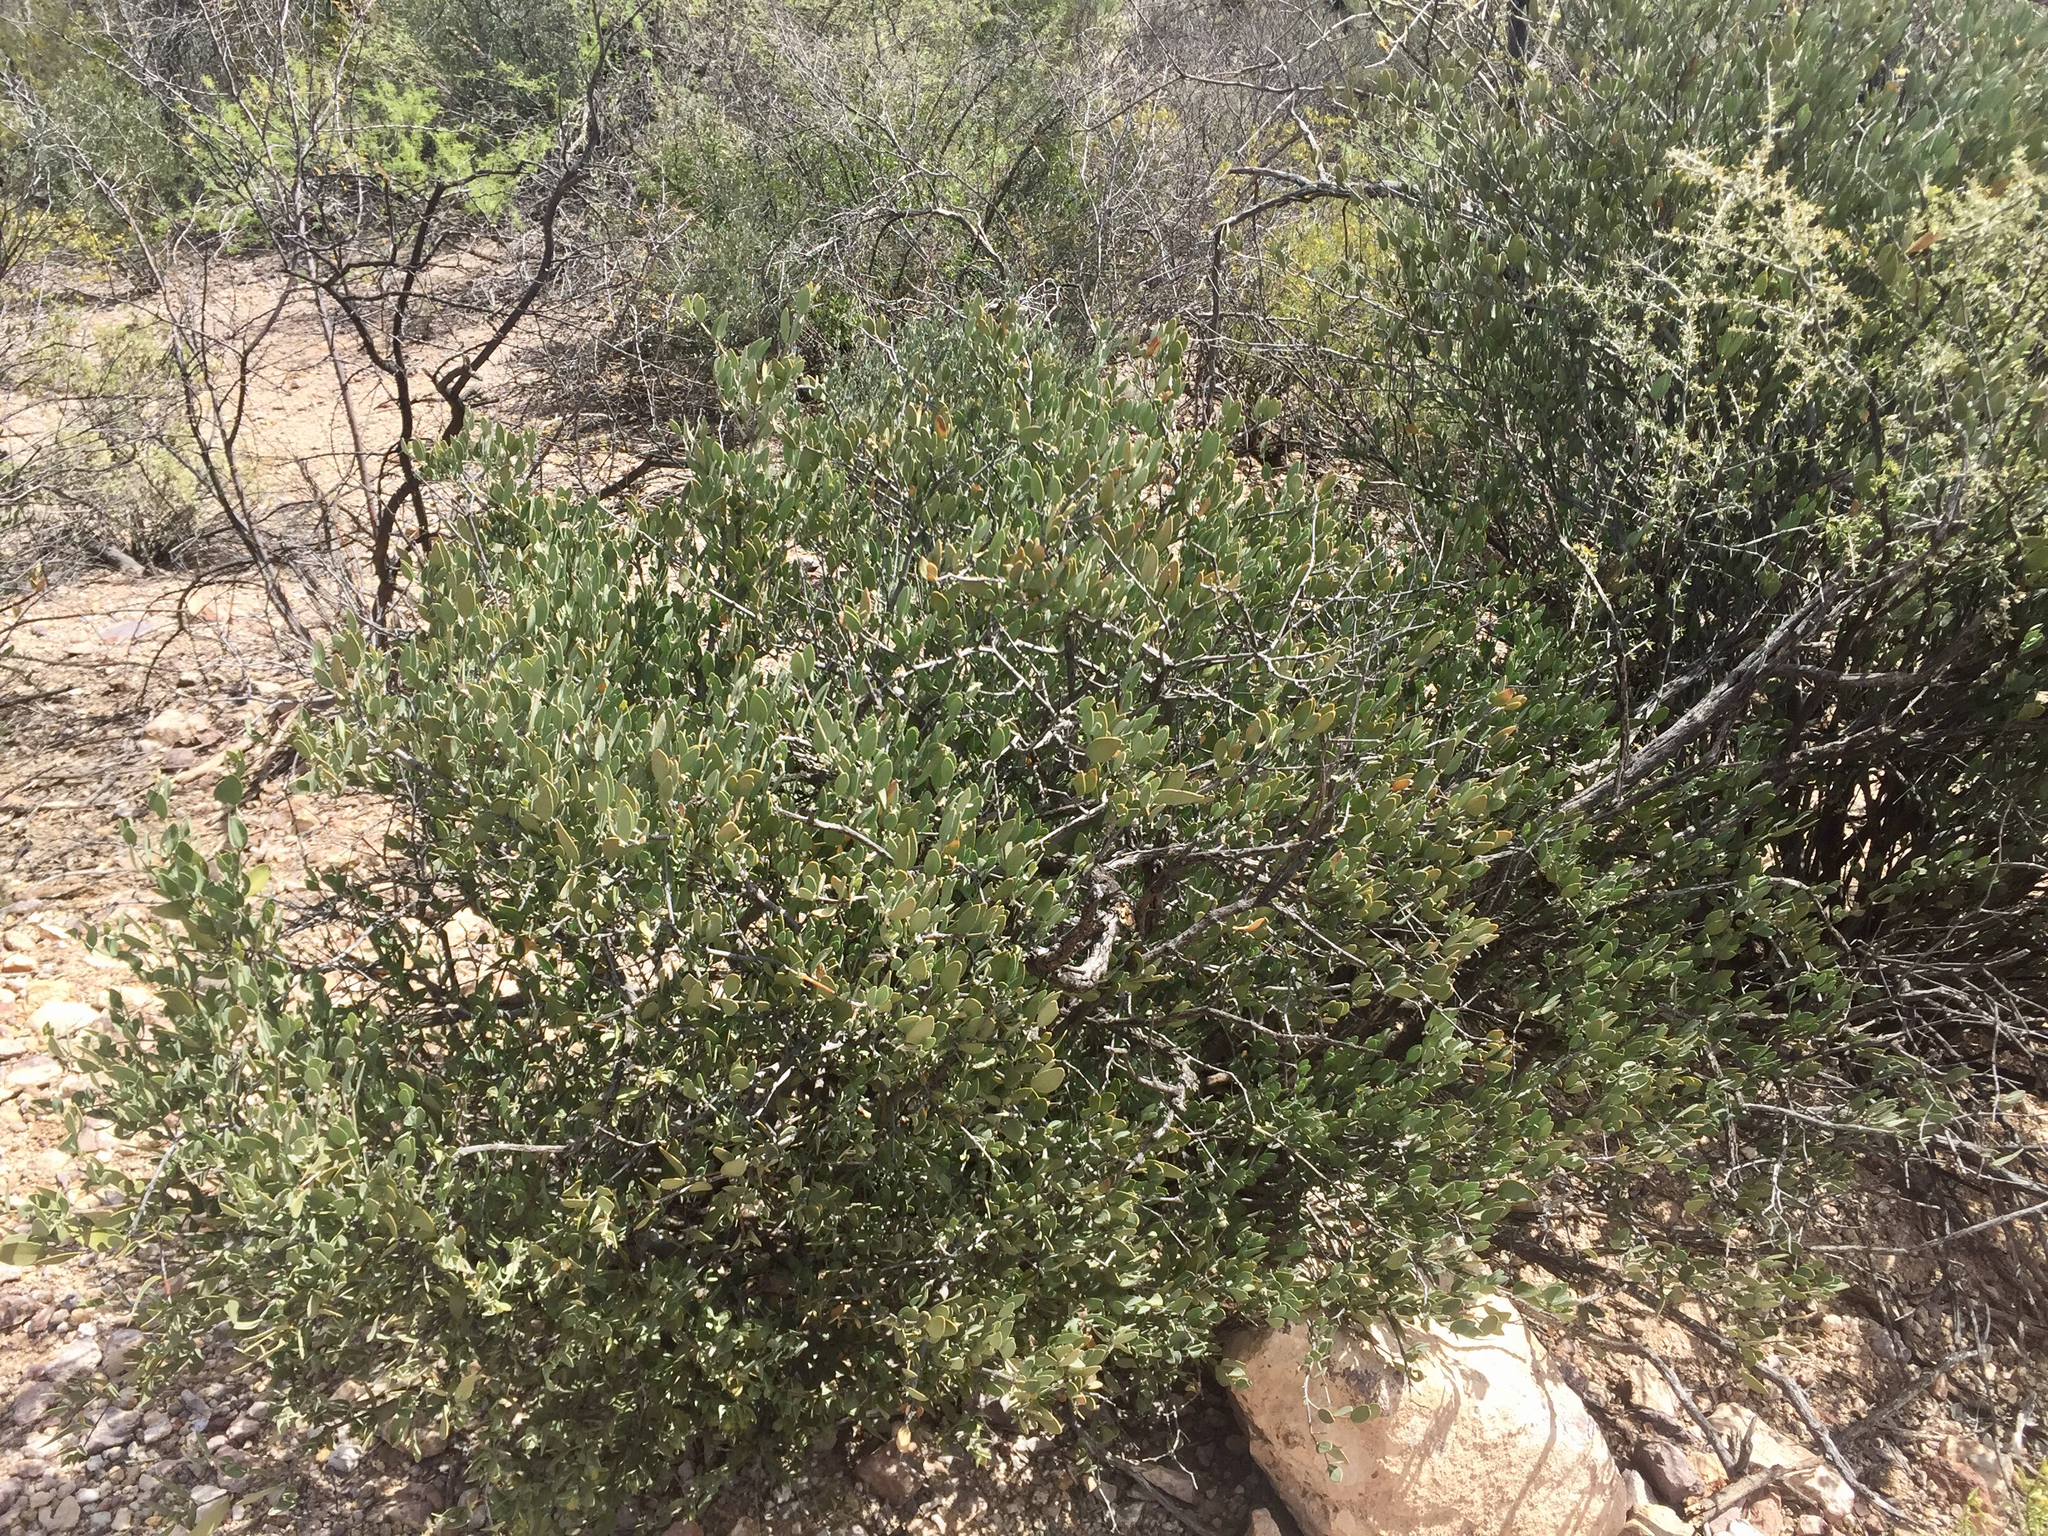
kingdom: Plantae
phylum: Tracheophyta
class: Magnoliopsida
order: Caryophyllales
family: Simmondsiaceae
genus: Simmondsia
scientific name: Simmondsia chinensis
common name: Jojoba
